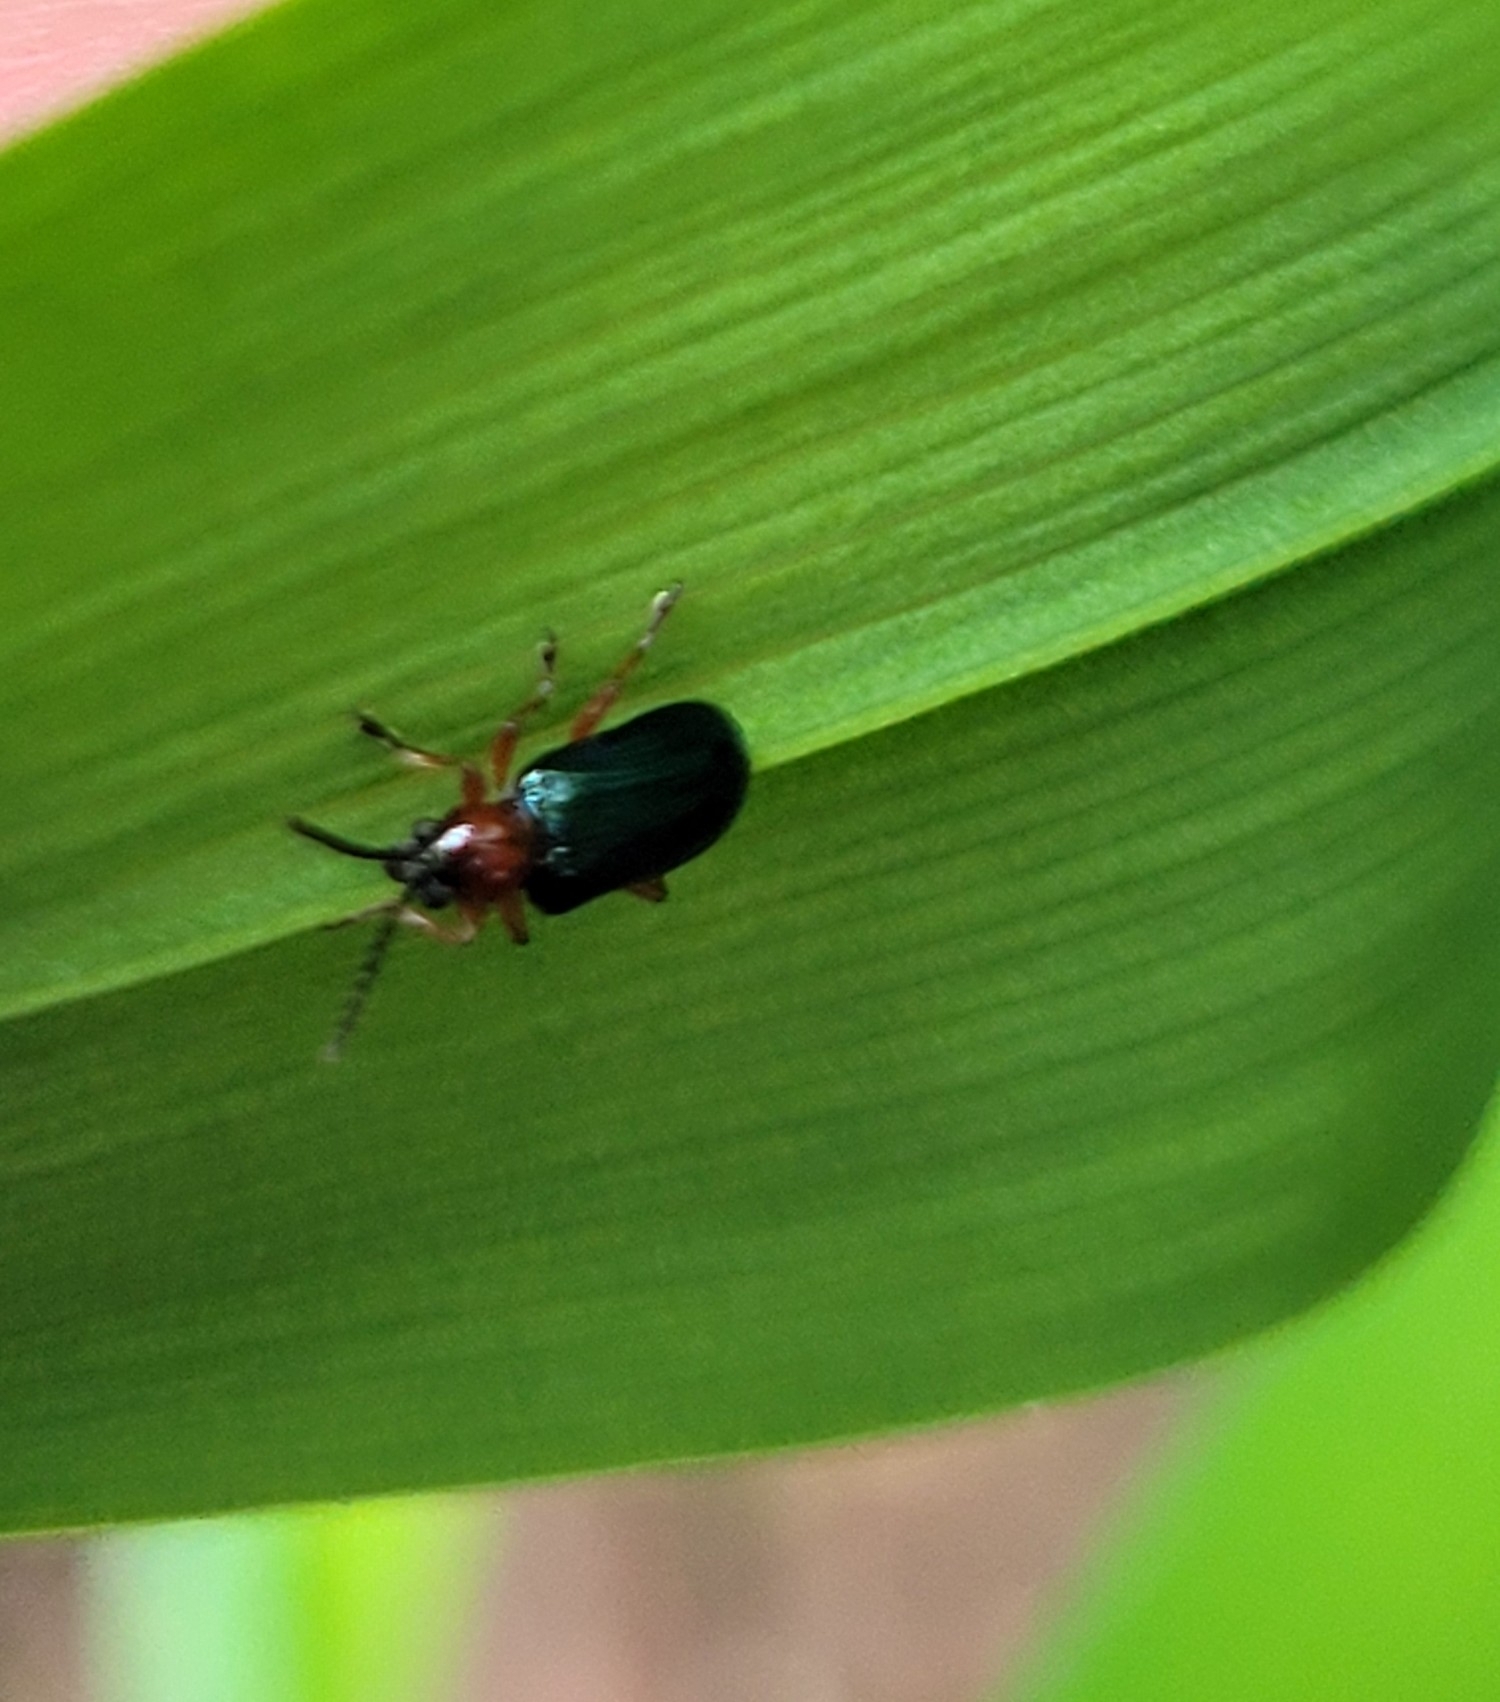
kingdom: Animalia
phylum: Arthropoda
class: Insecta
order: Coleoptera
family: Chrysomelidae
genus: Oulema
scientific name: Oulema
